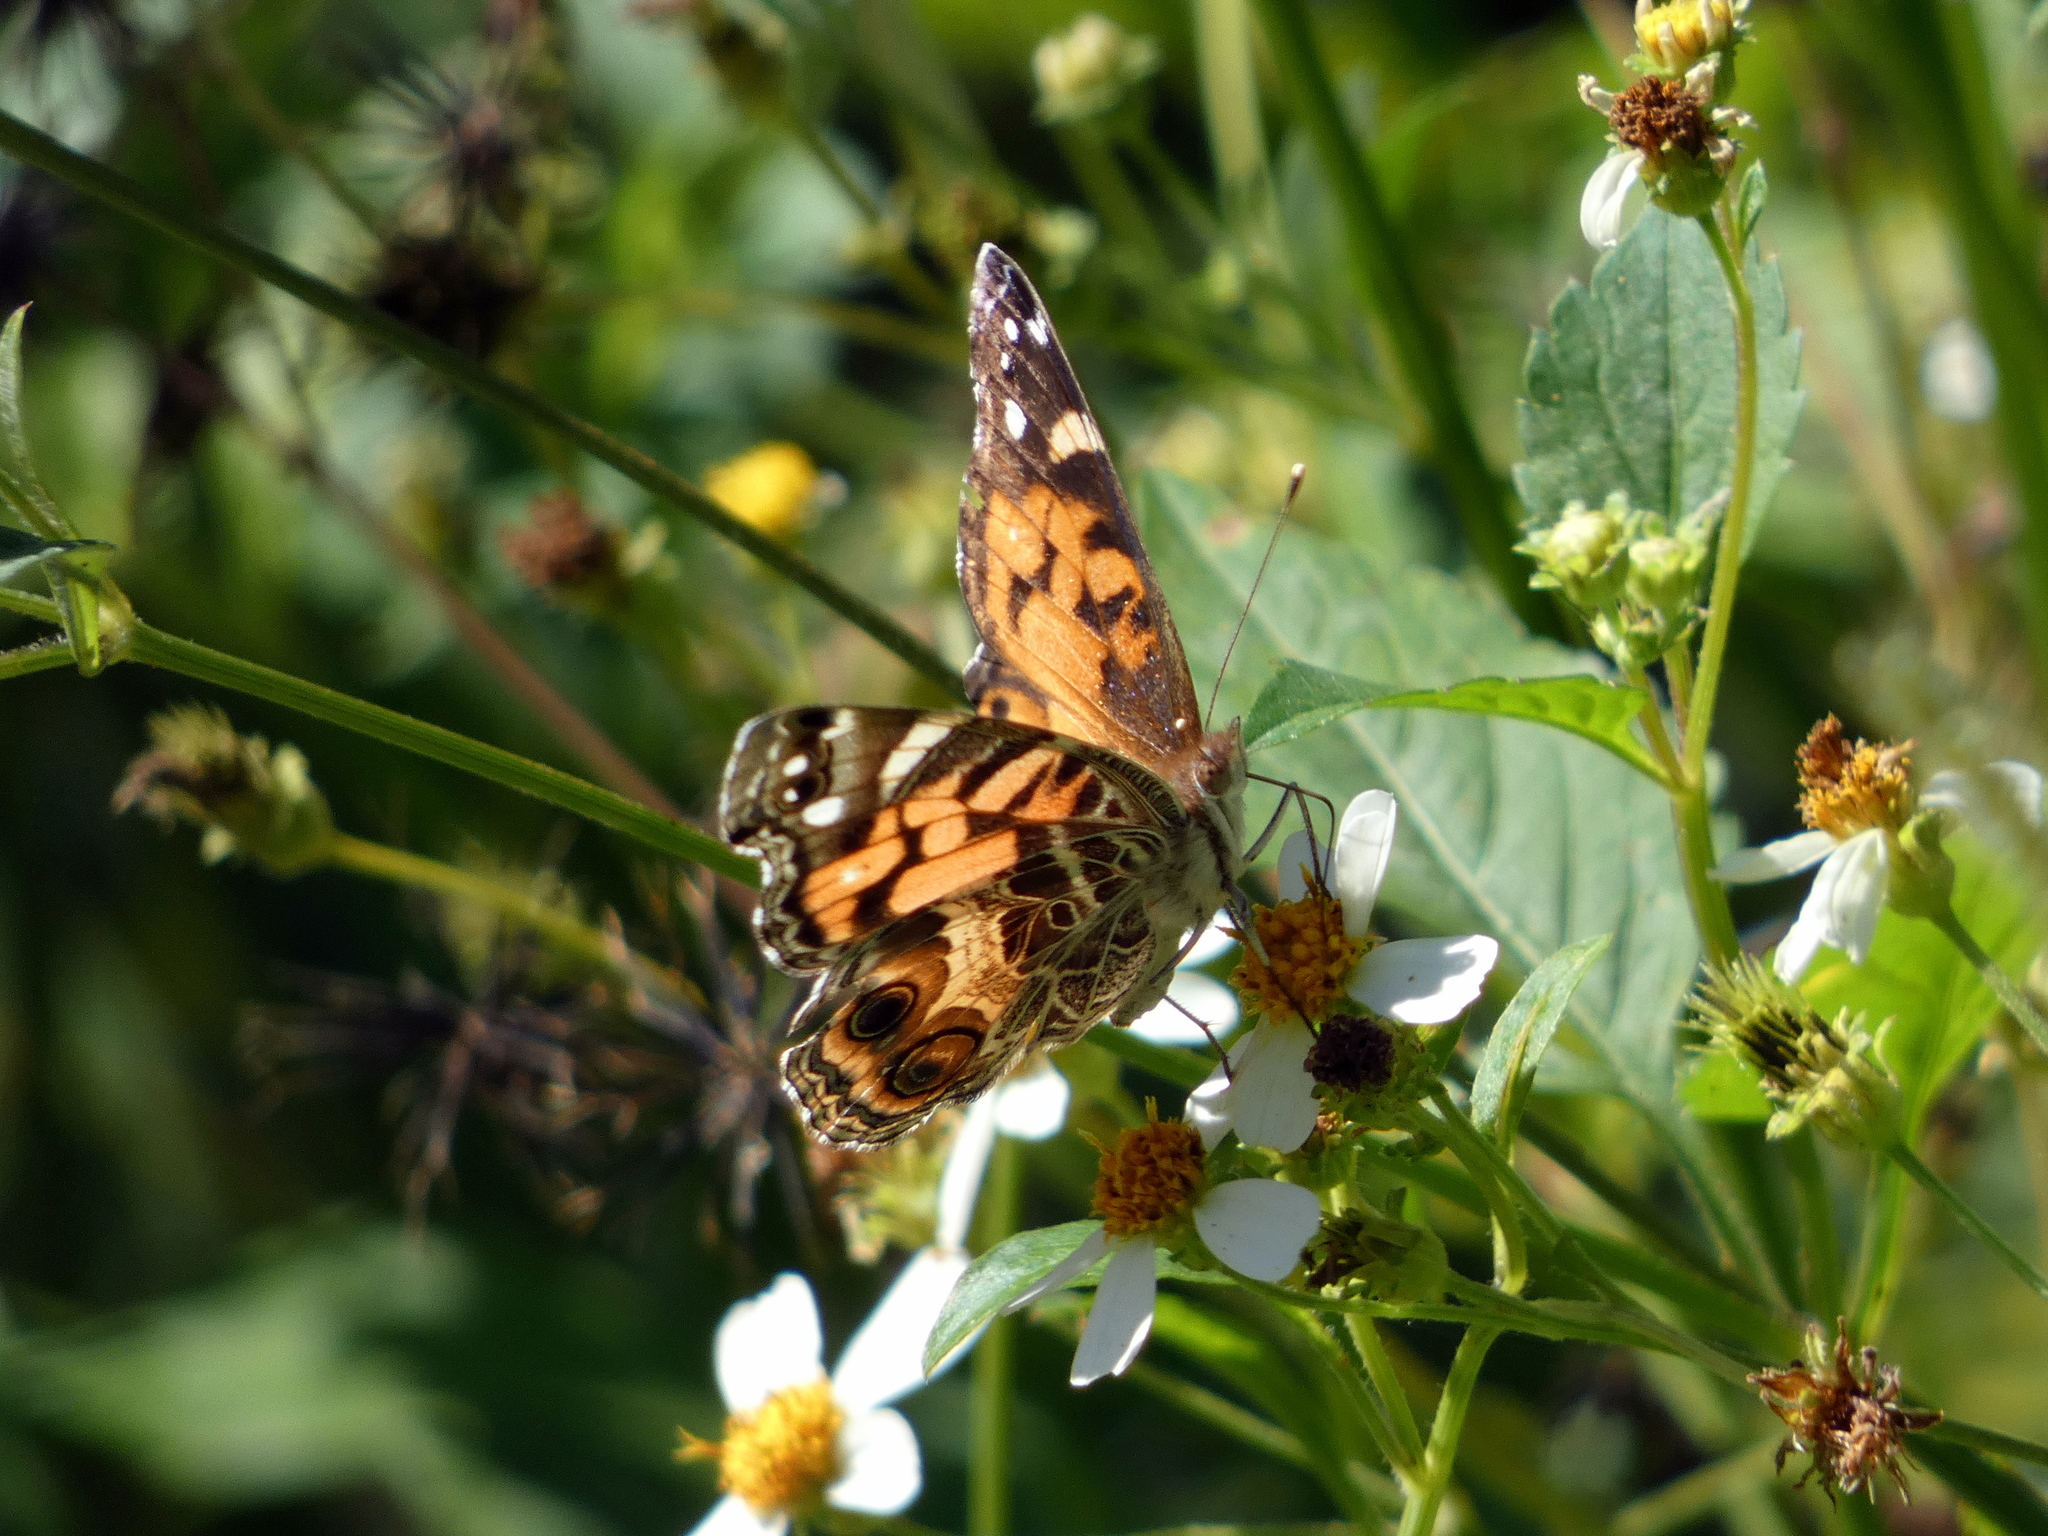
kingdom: Animalia
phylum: Arthropoda
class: Insecta
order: Lepidoptera
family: Nymphalidae
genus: Vanessa
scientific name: Vanessa virginiensis
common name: American lady
